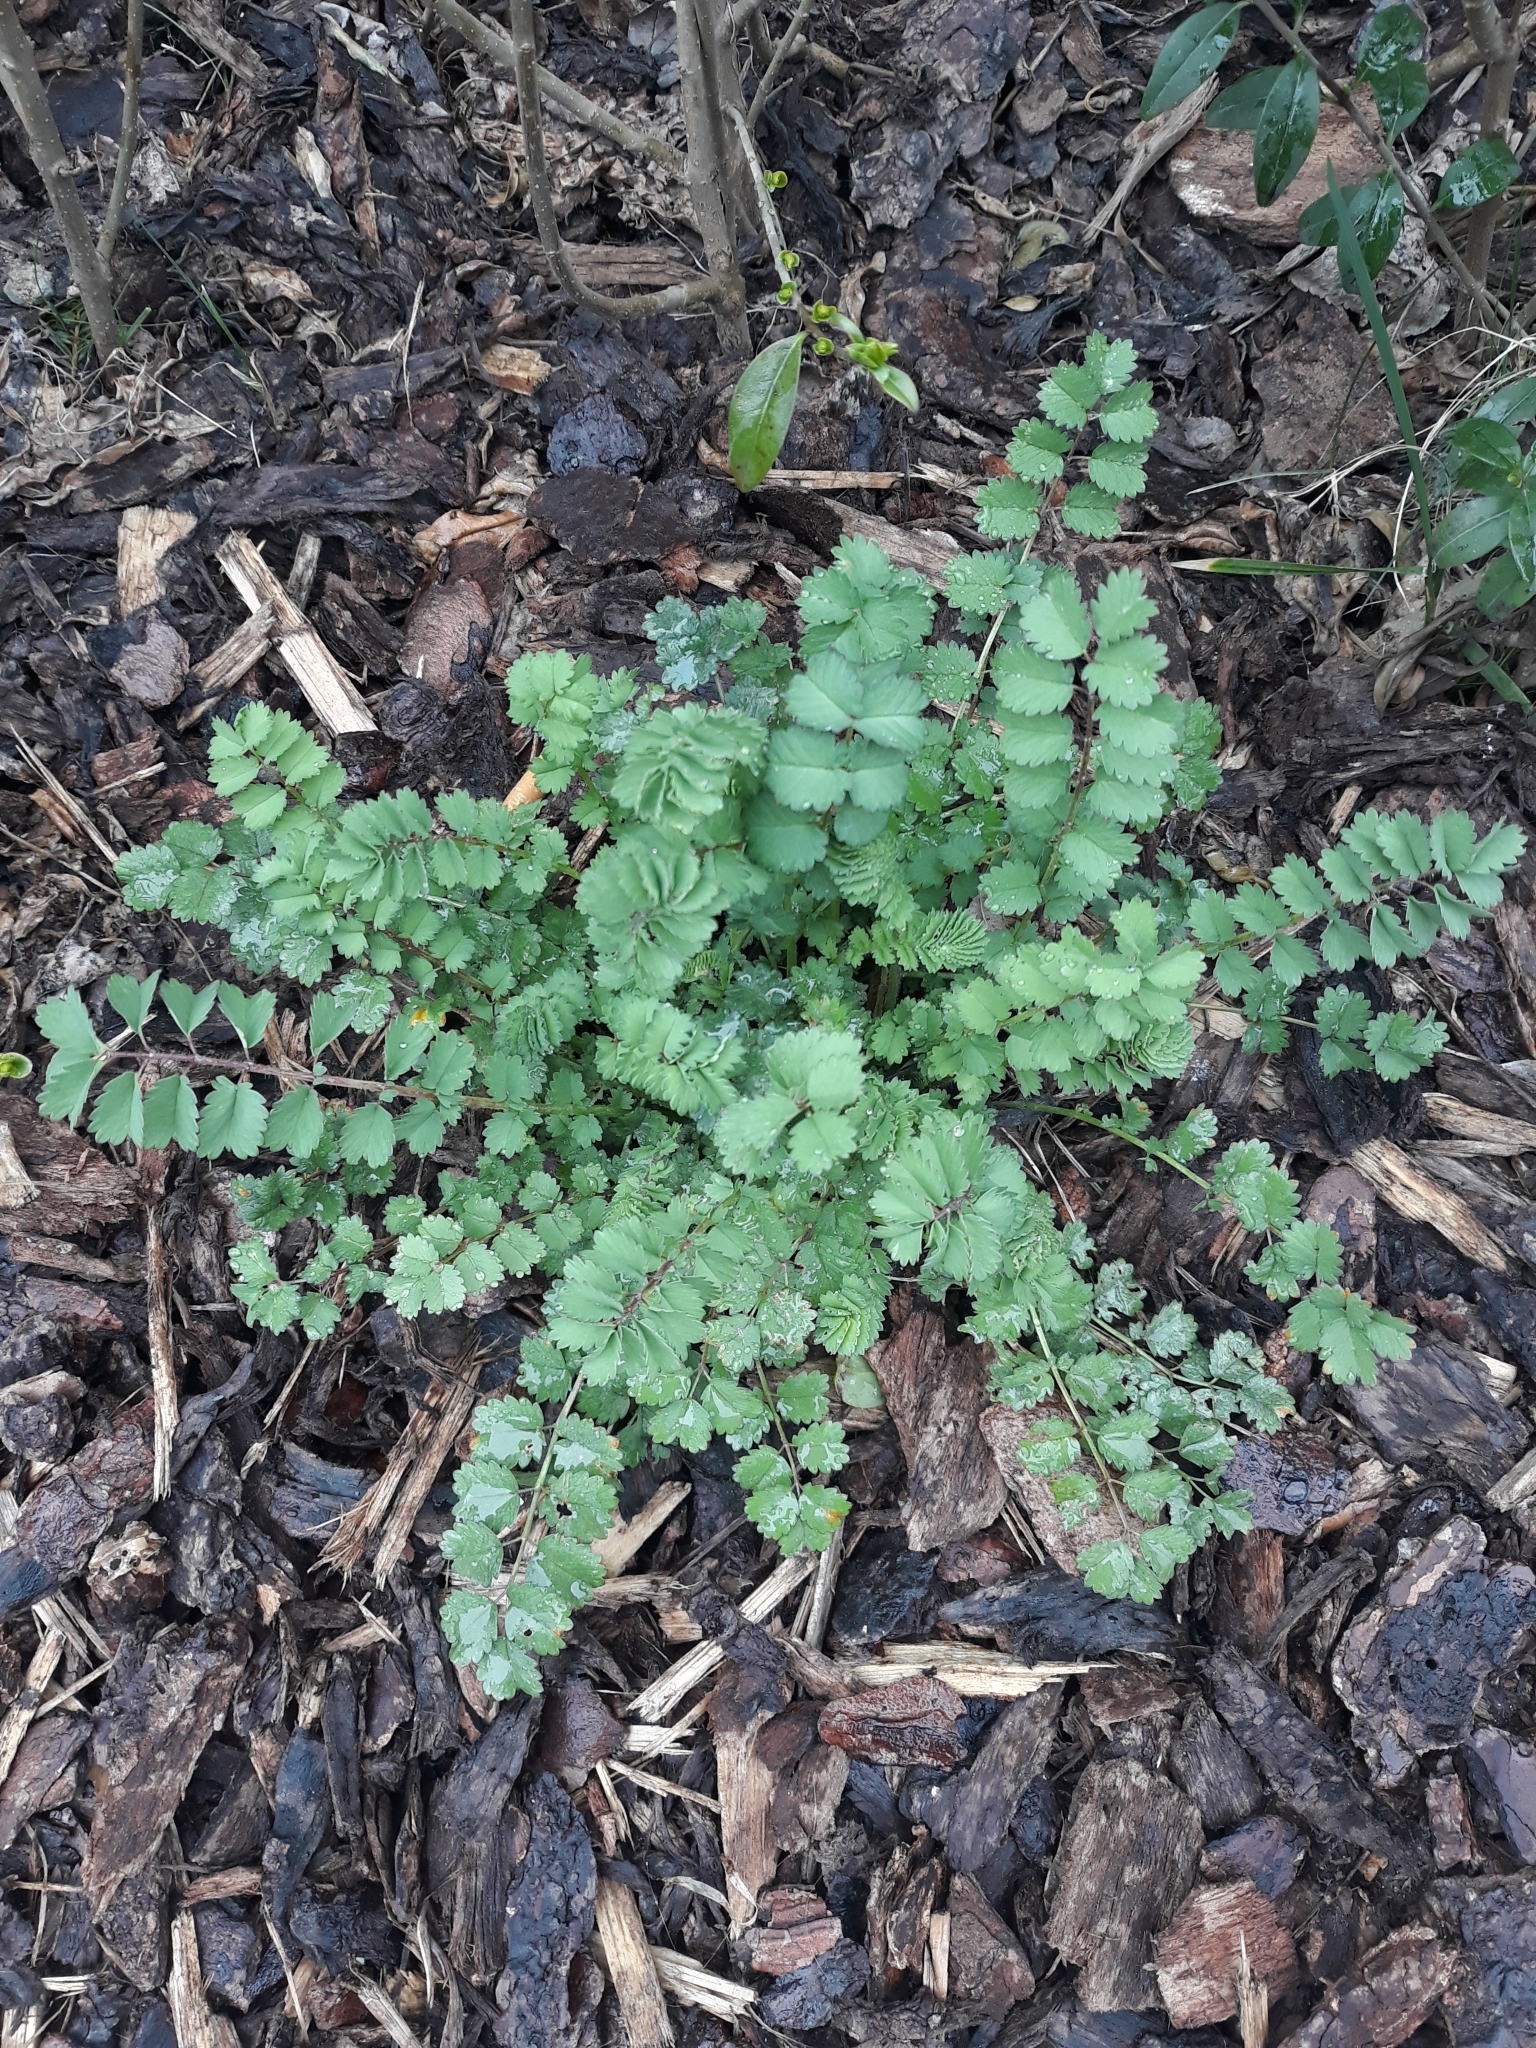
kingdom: Plantae
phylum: Tracheophyta
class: Magnoliopsida
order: Rosales
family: Rosaceae
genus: Poterium
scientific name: Poterium sanguisorba
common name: Salad burnet
